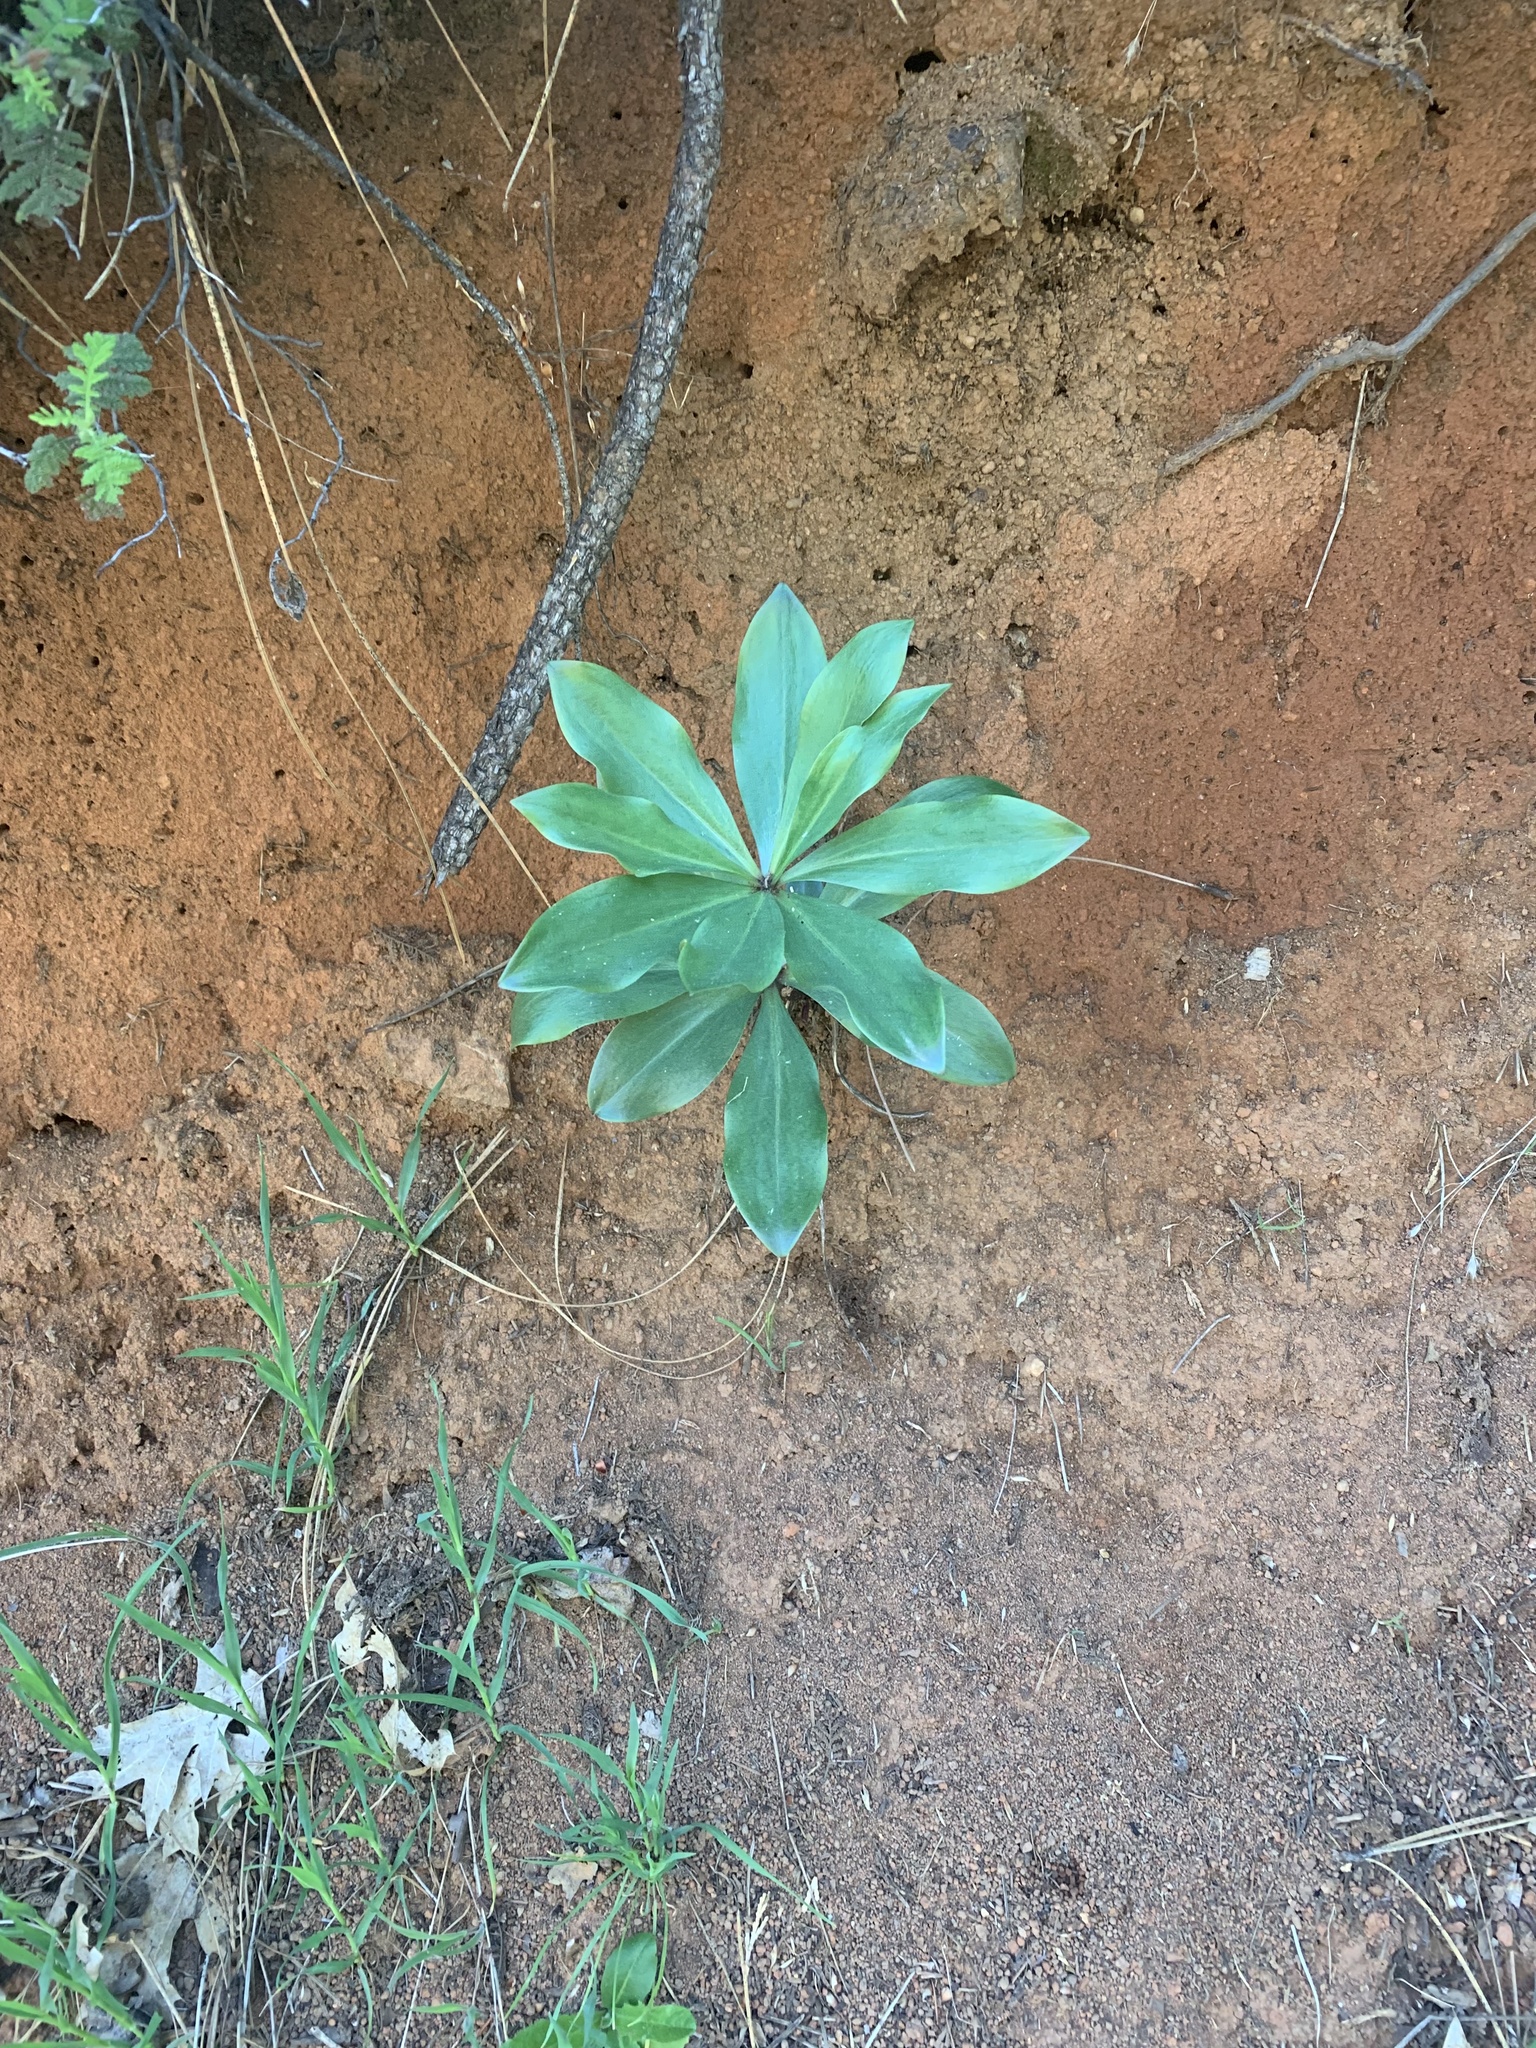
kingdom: Plantae
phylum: Tracheophyta
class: Liliopsida
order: Liliales
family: Liliaceae
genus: Lilium
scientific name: Lilium humboldtii
